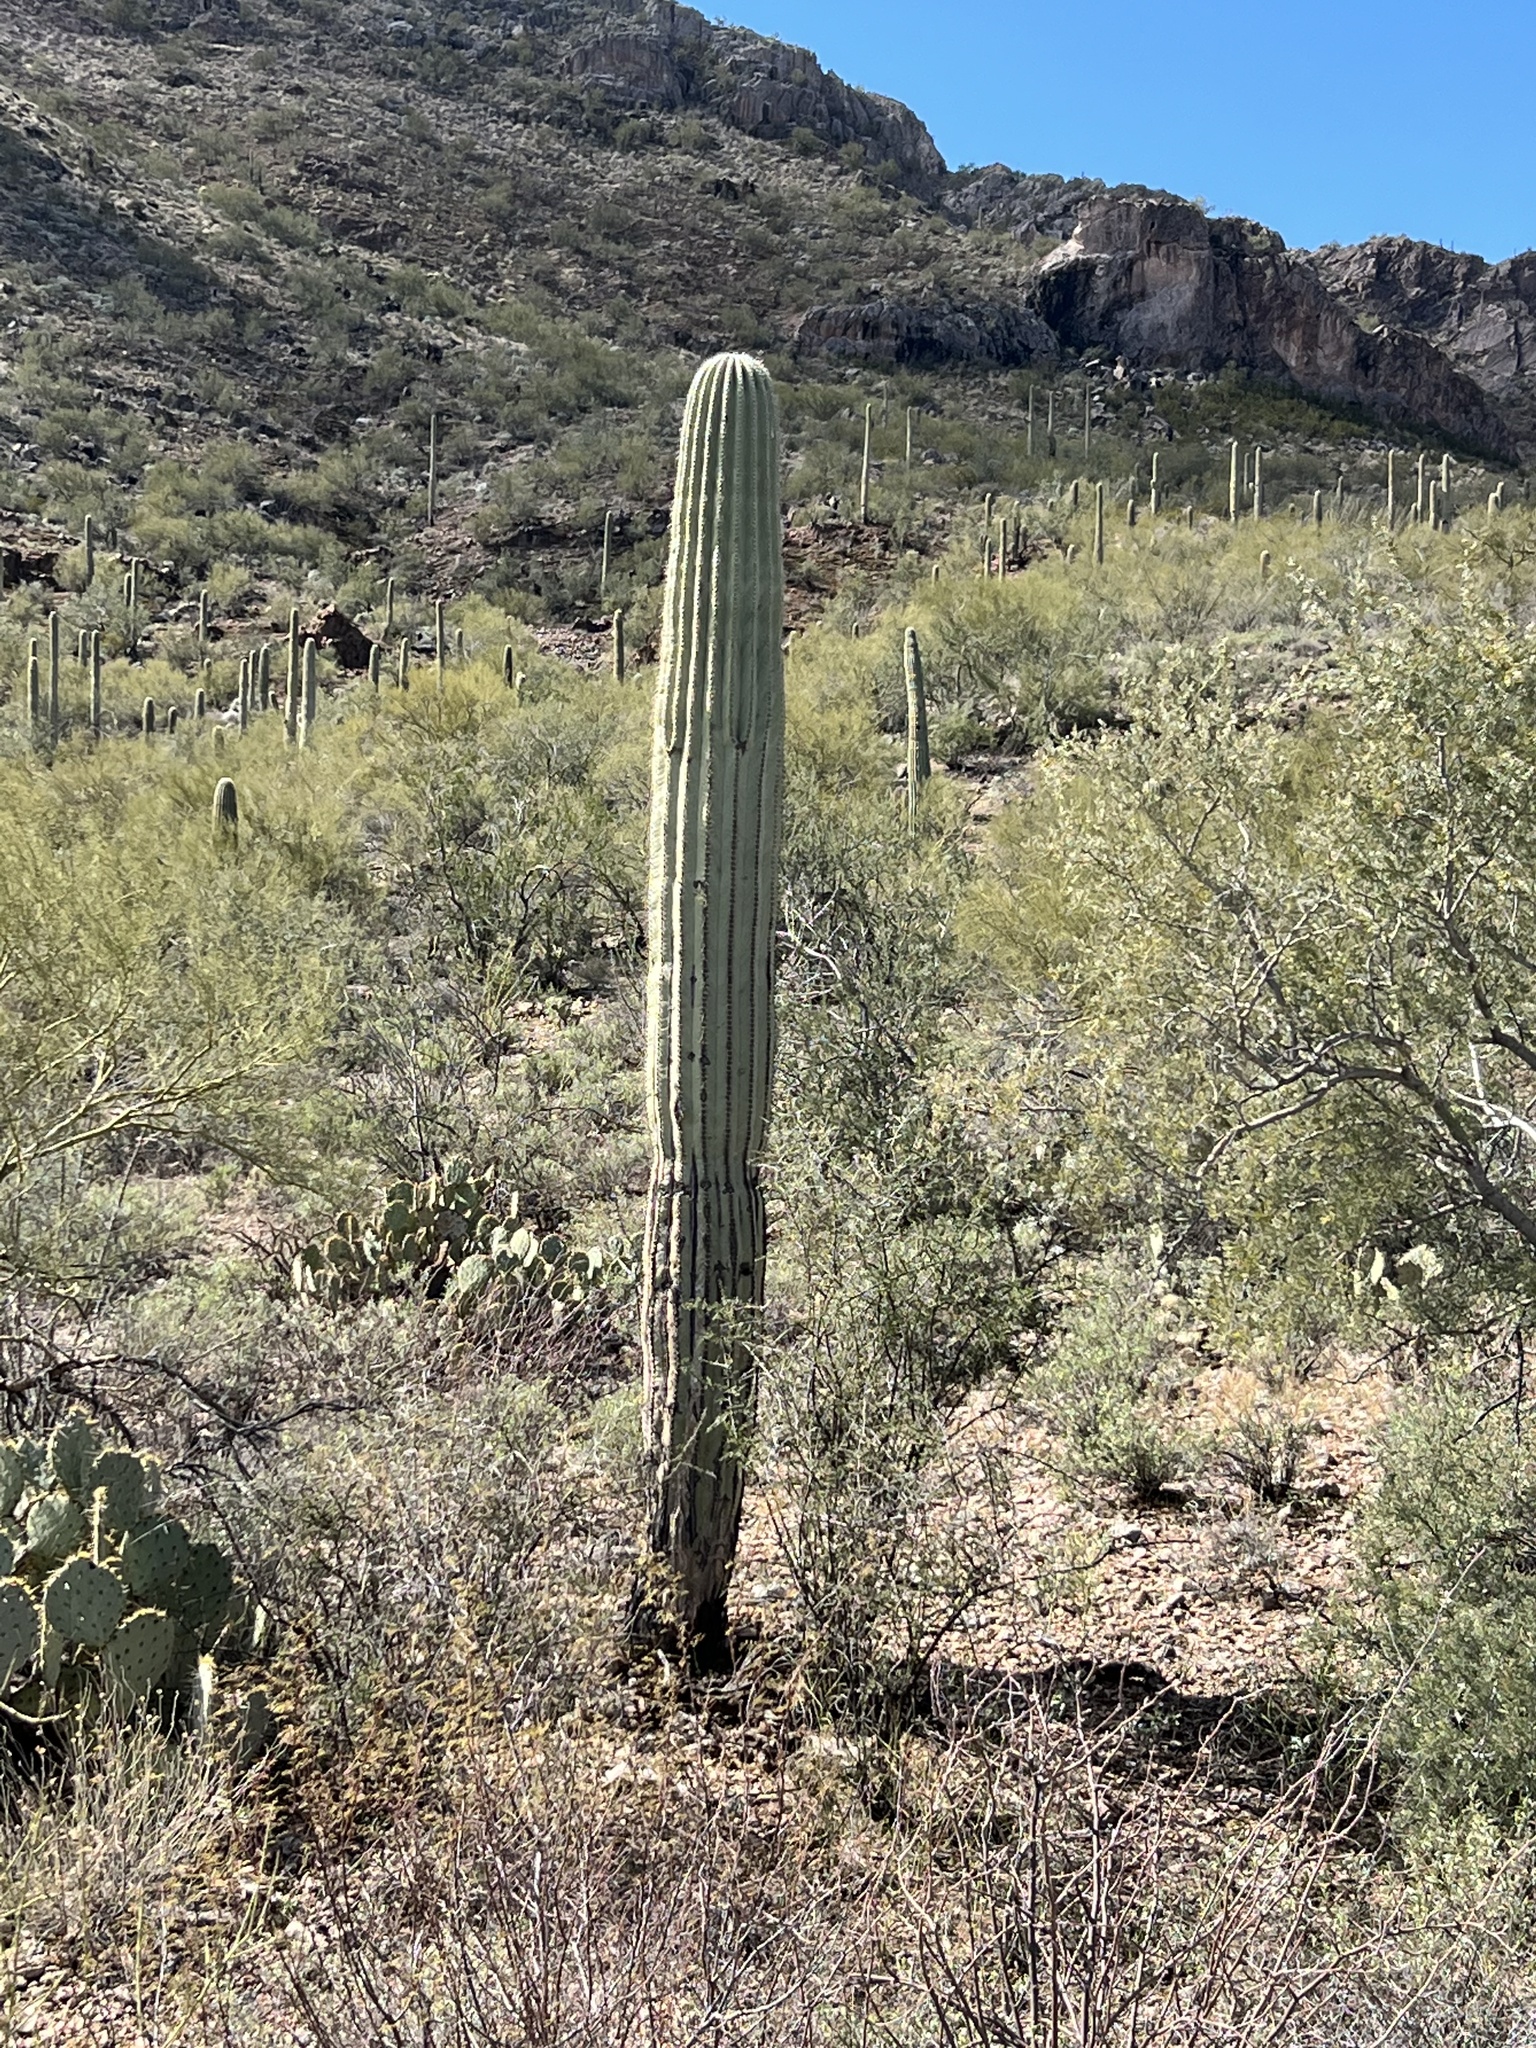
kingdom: Plantae
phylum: Tracheophyta
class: Magnoliopsida
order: Caryophyllales
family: Cactaceae
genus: Carnegiea
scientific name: Carnegiea gigantea
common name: Saguaro
